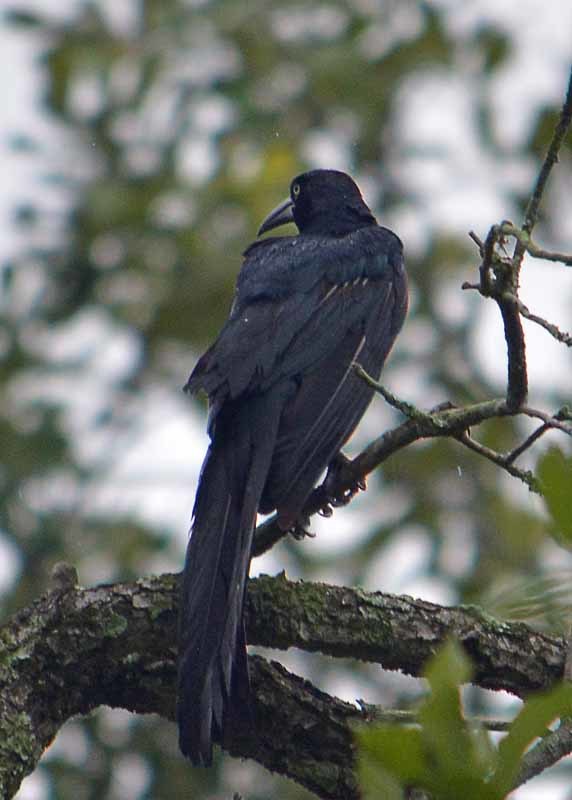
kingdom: Animalia
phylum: Chordata
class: Aves
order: Passeriformes
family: Icteridae
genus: Quiscalus
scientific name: Quiscalus mexicanus
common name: Great-tailed grackle
